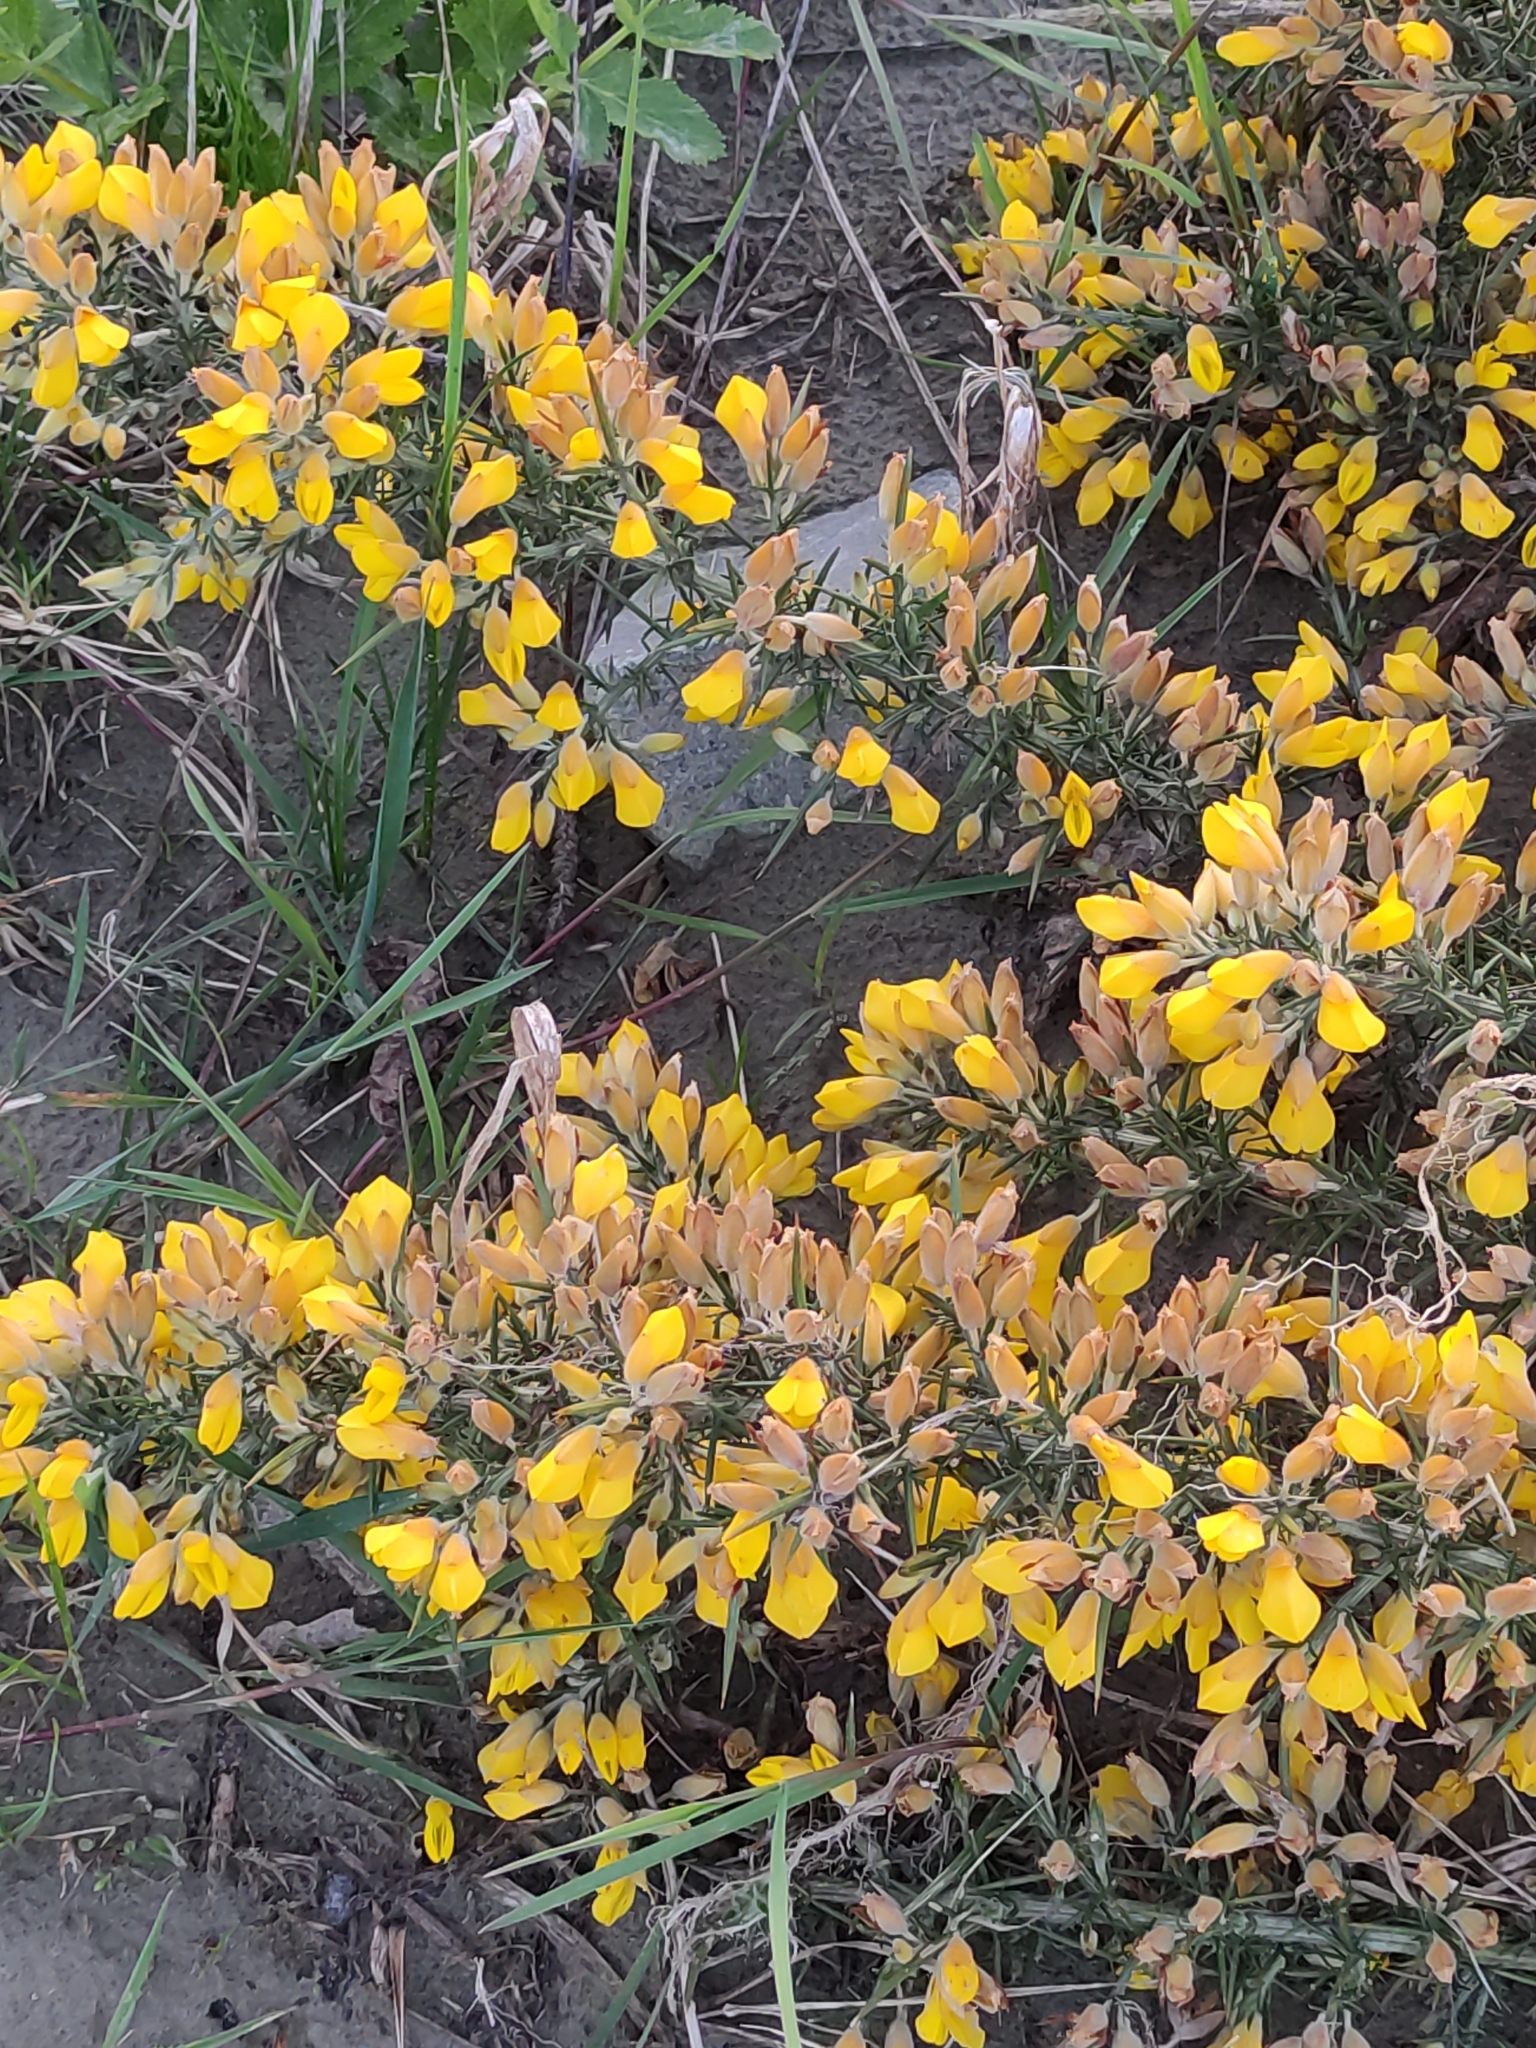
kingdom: Plantae
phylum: Tracheophyta
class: Magnoliopsida
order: Fabales
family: Fabaceae
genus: Ulex
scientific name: Ulex europaeus
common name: Common gorse
